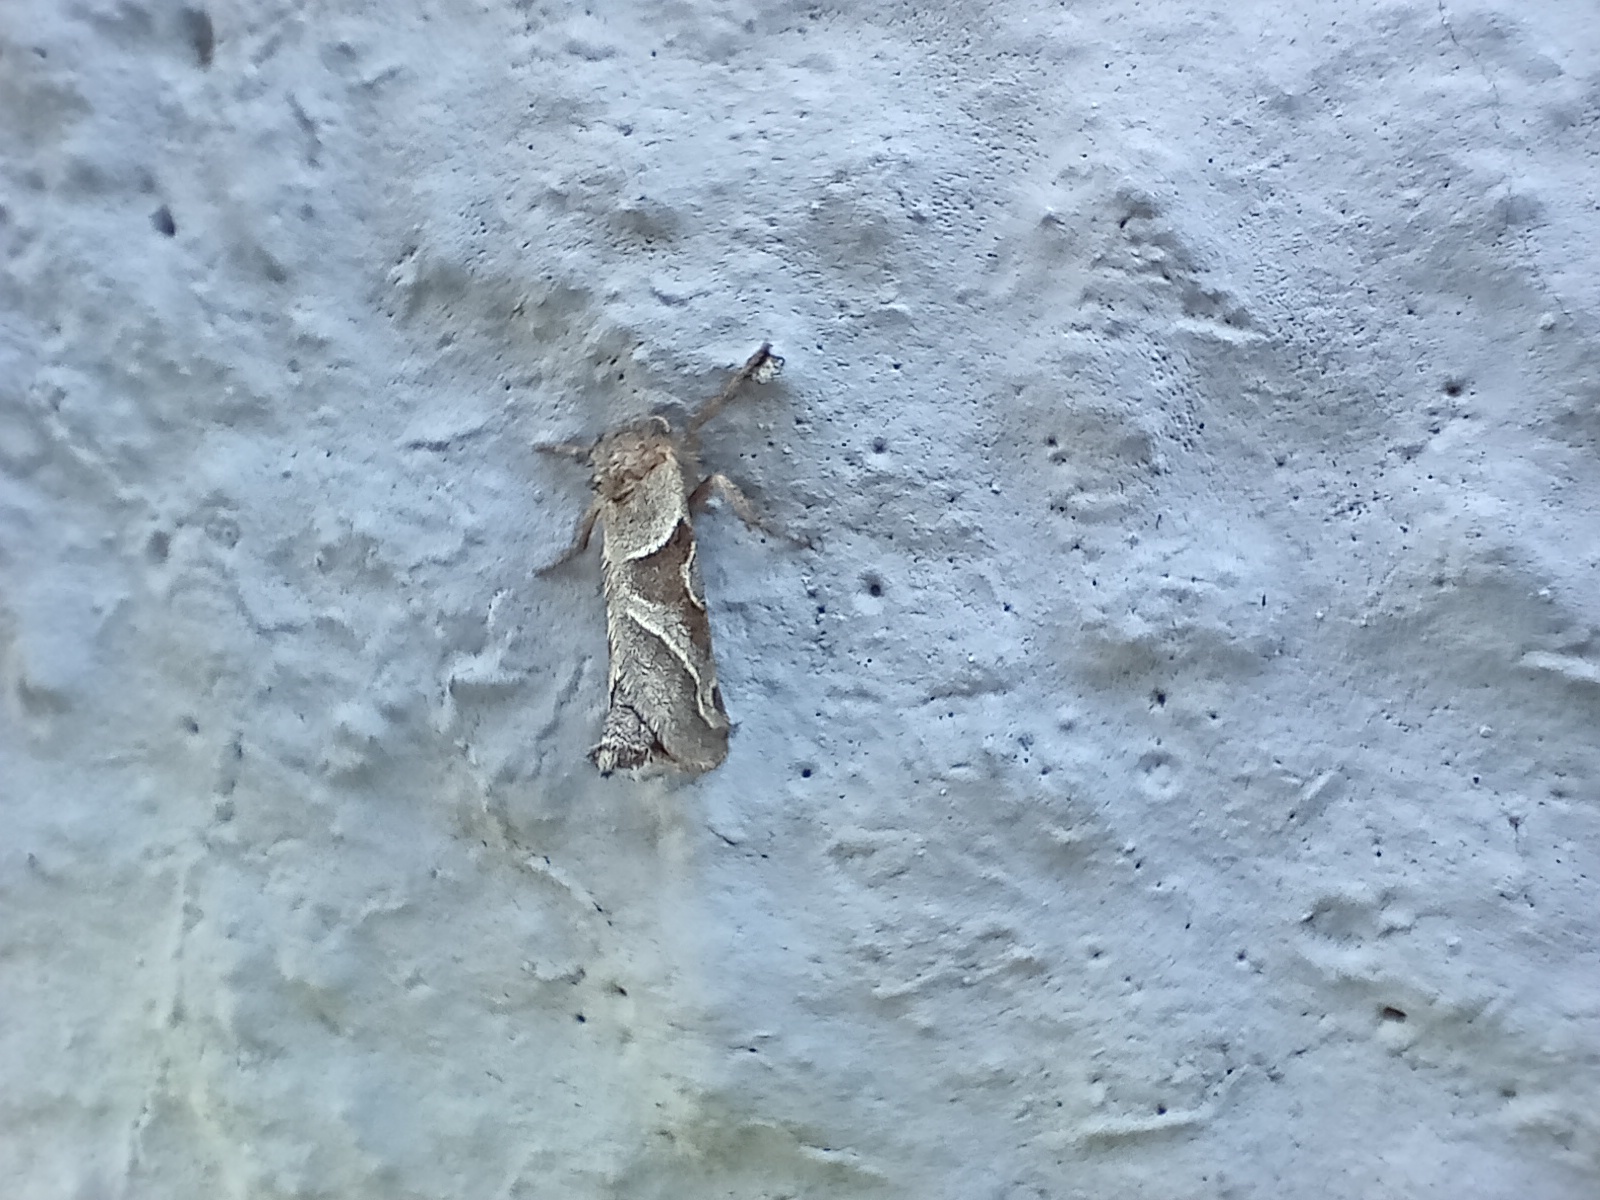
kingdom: Animalia
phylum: Arthropoda
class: Insecta
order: Lepidoptera
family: Hepialidae
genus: Triodia
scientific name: Triodia sylvina
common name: Orange swift
